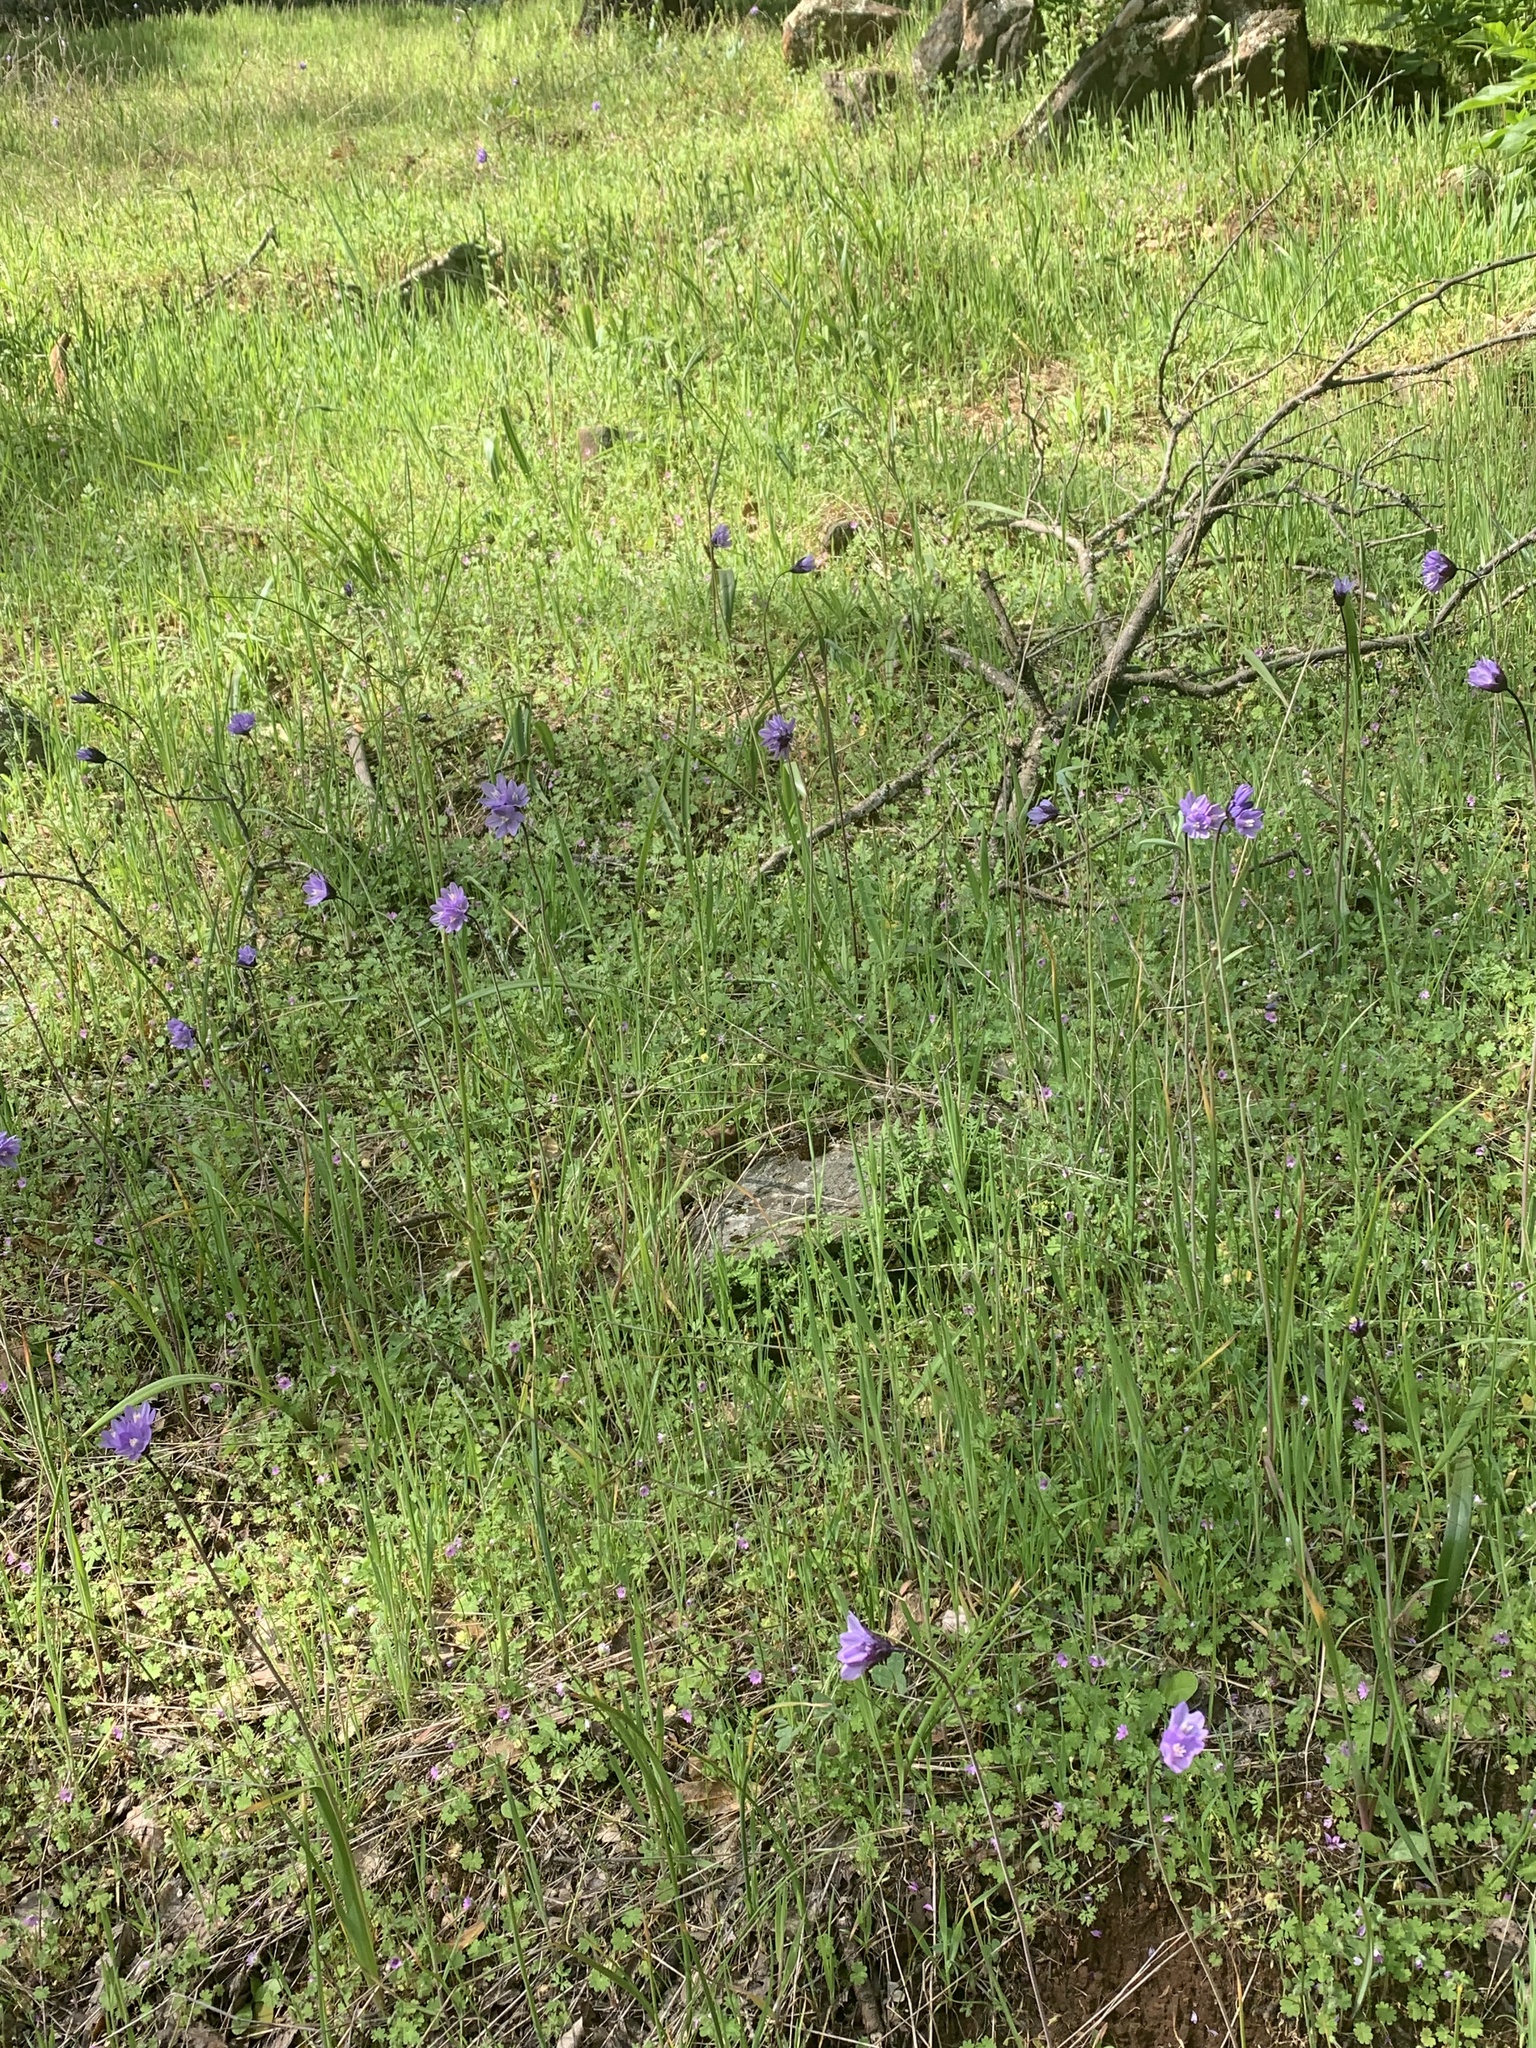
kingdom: Plantae
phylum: Tracheophyta
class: Liliopsida
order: Asparagales
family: Asparagaceae
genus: Dipterostemon
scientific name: Dipterostemon capitatus
